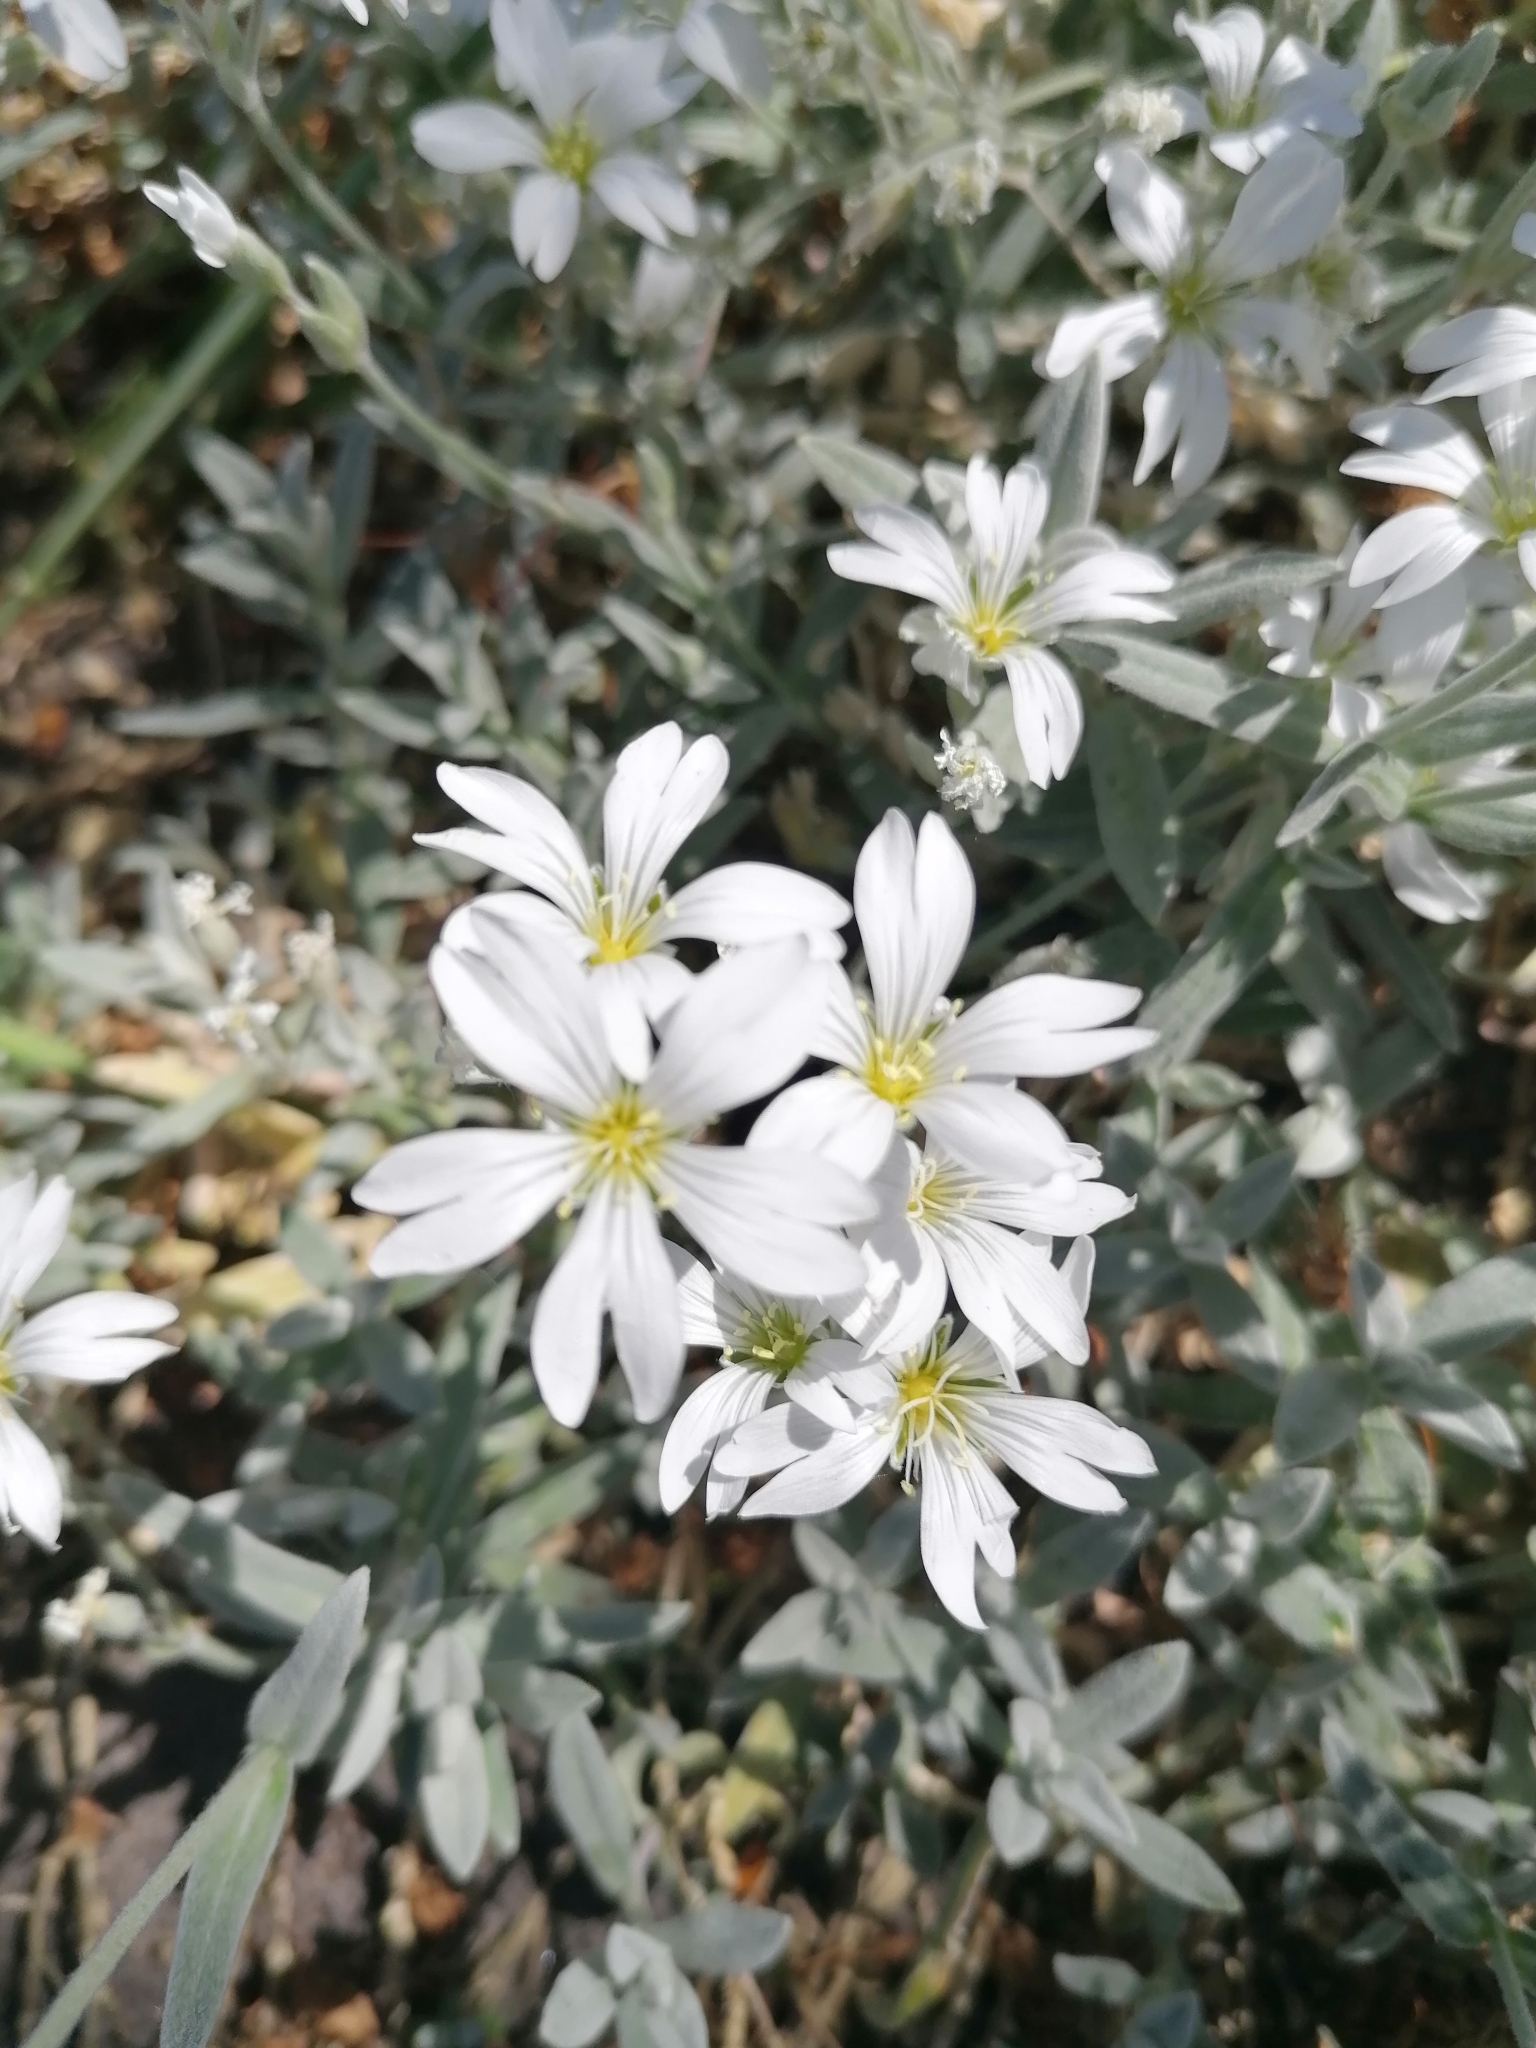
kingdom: Plantae
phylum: Tracheophyta
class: Magnoliopsida
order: Caryophyllales
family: Caryophyllaceae
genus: Cerastium
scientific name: Cerastium tomentosum
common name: Snow-in-summer
